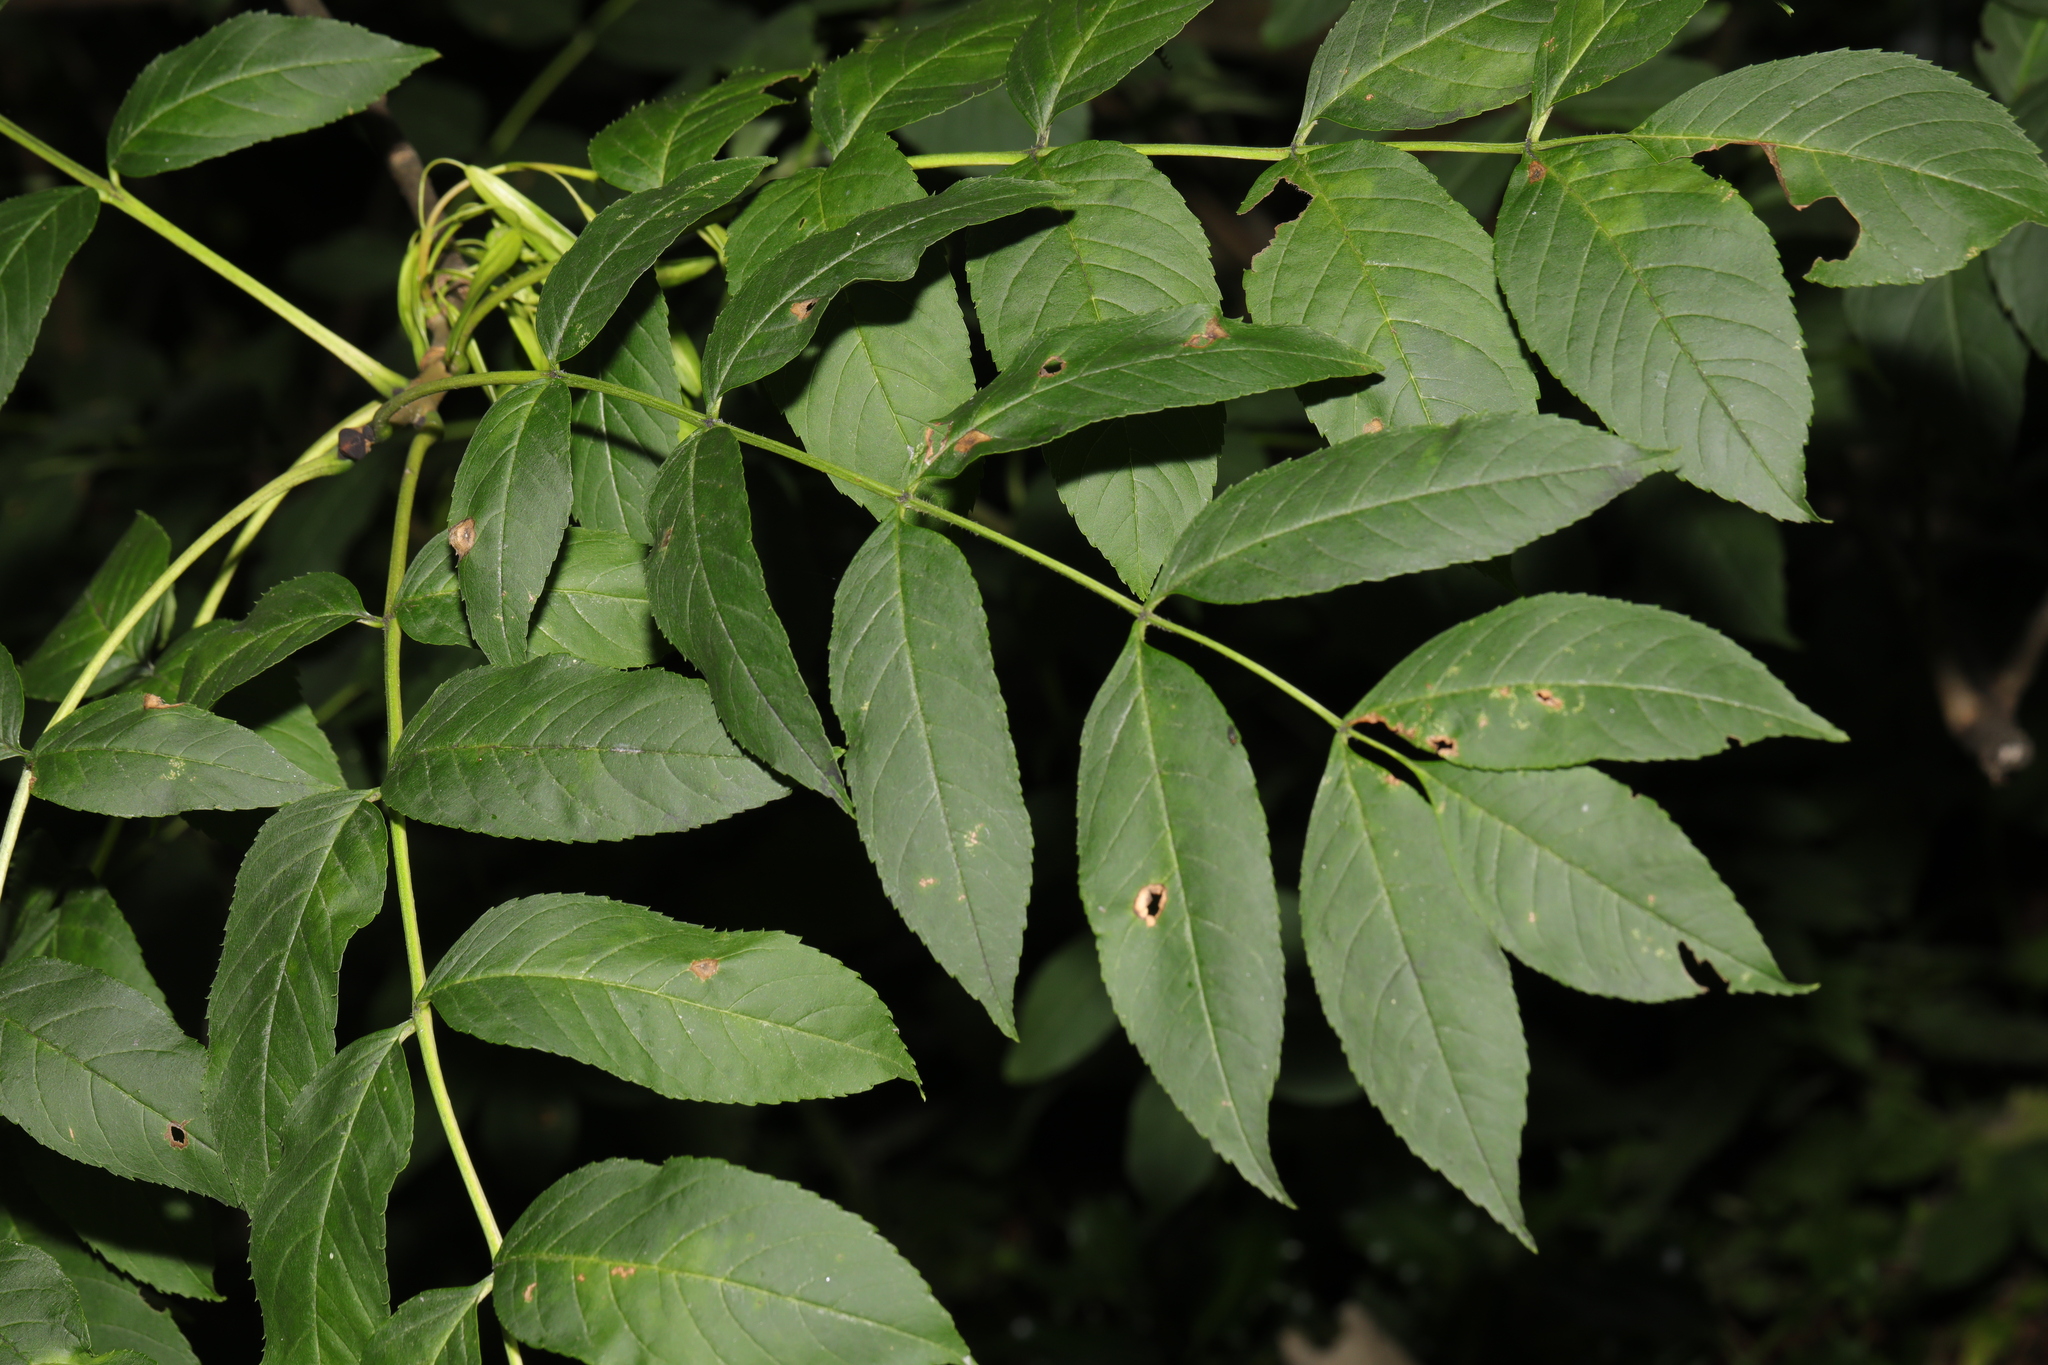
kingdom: Plantae
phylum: Tracheophyta
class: Magnoliopsida
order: Lamiales
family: Oleaceae
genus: Fraxinus
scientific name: Fraxinus excelsior
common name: European ash
